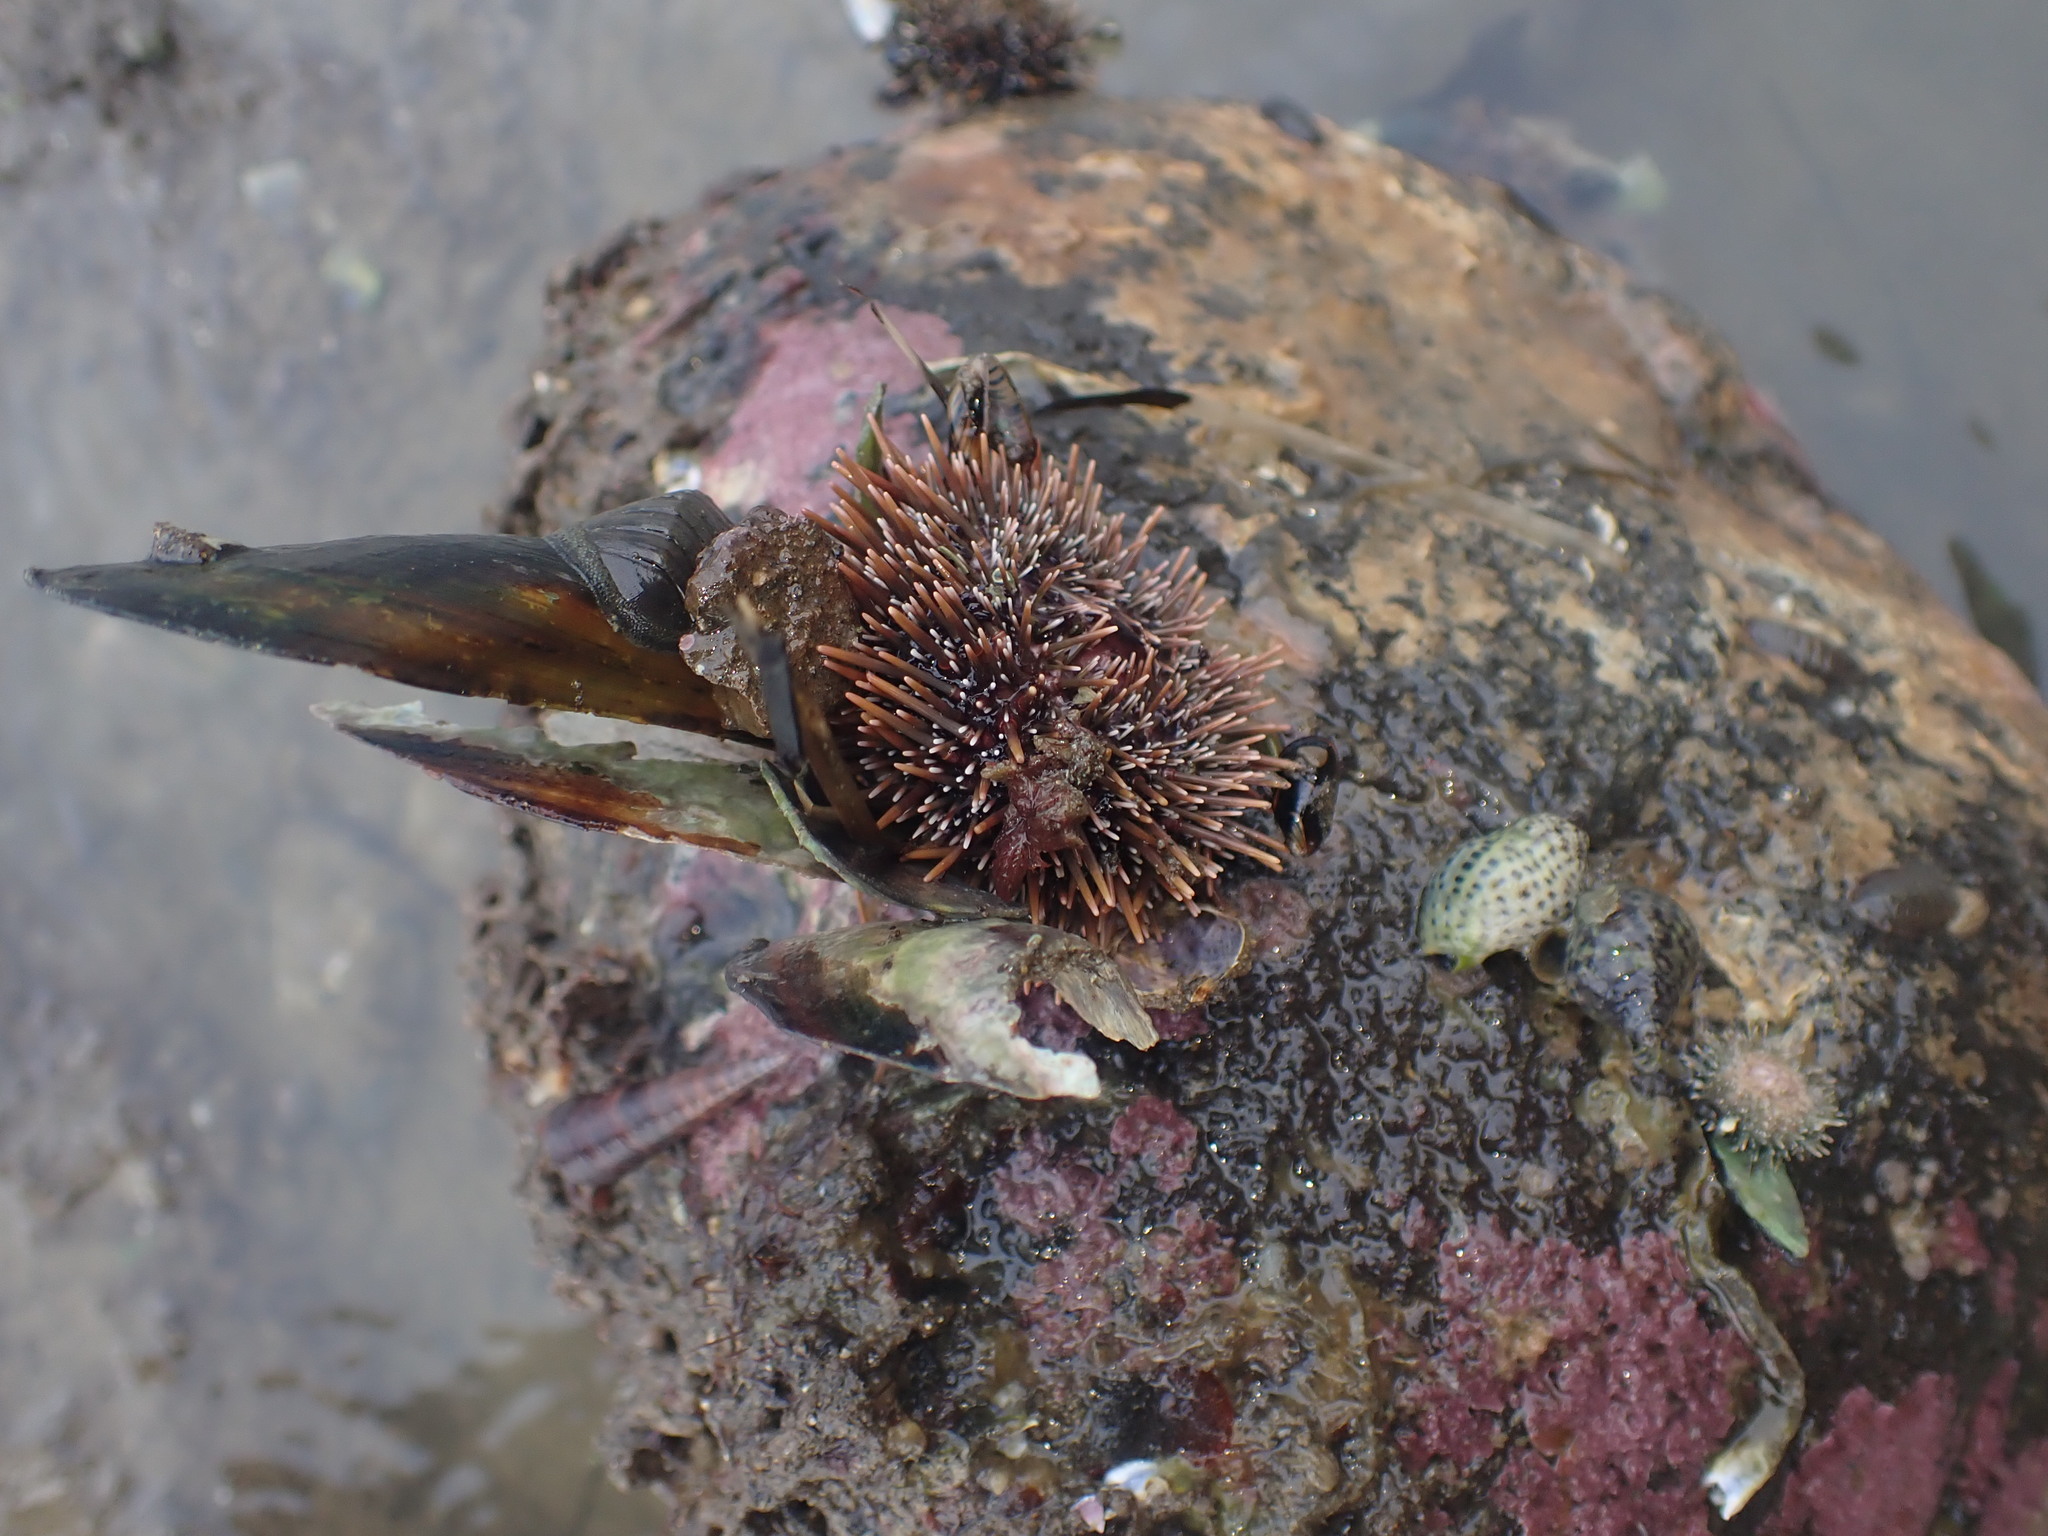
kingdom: Animalia
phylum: Echinodermata
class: Echinoidea
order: Camarodonta
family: Echinometridae
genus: Evechinus
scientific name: Evechinus chloroticus
